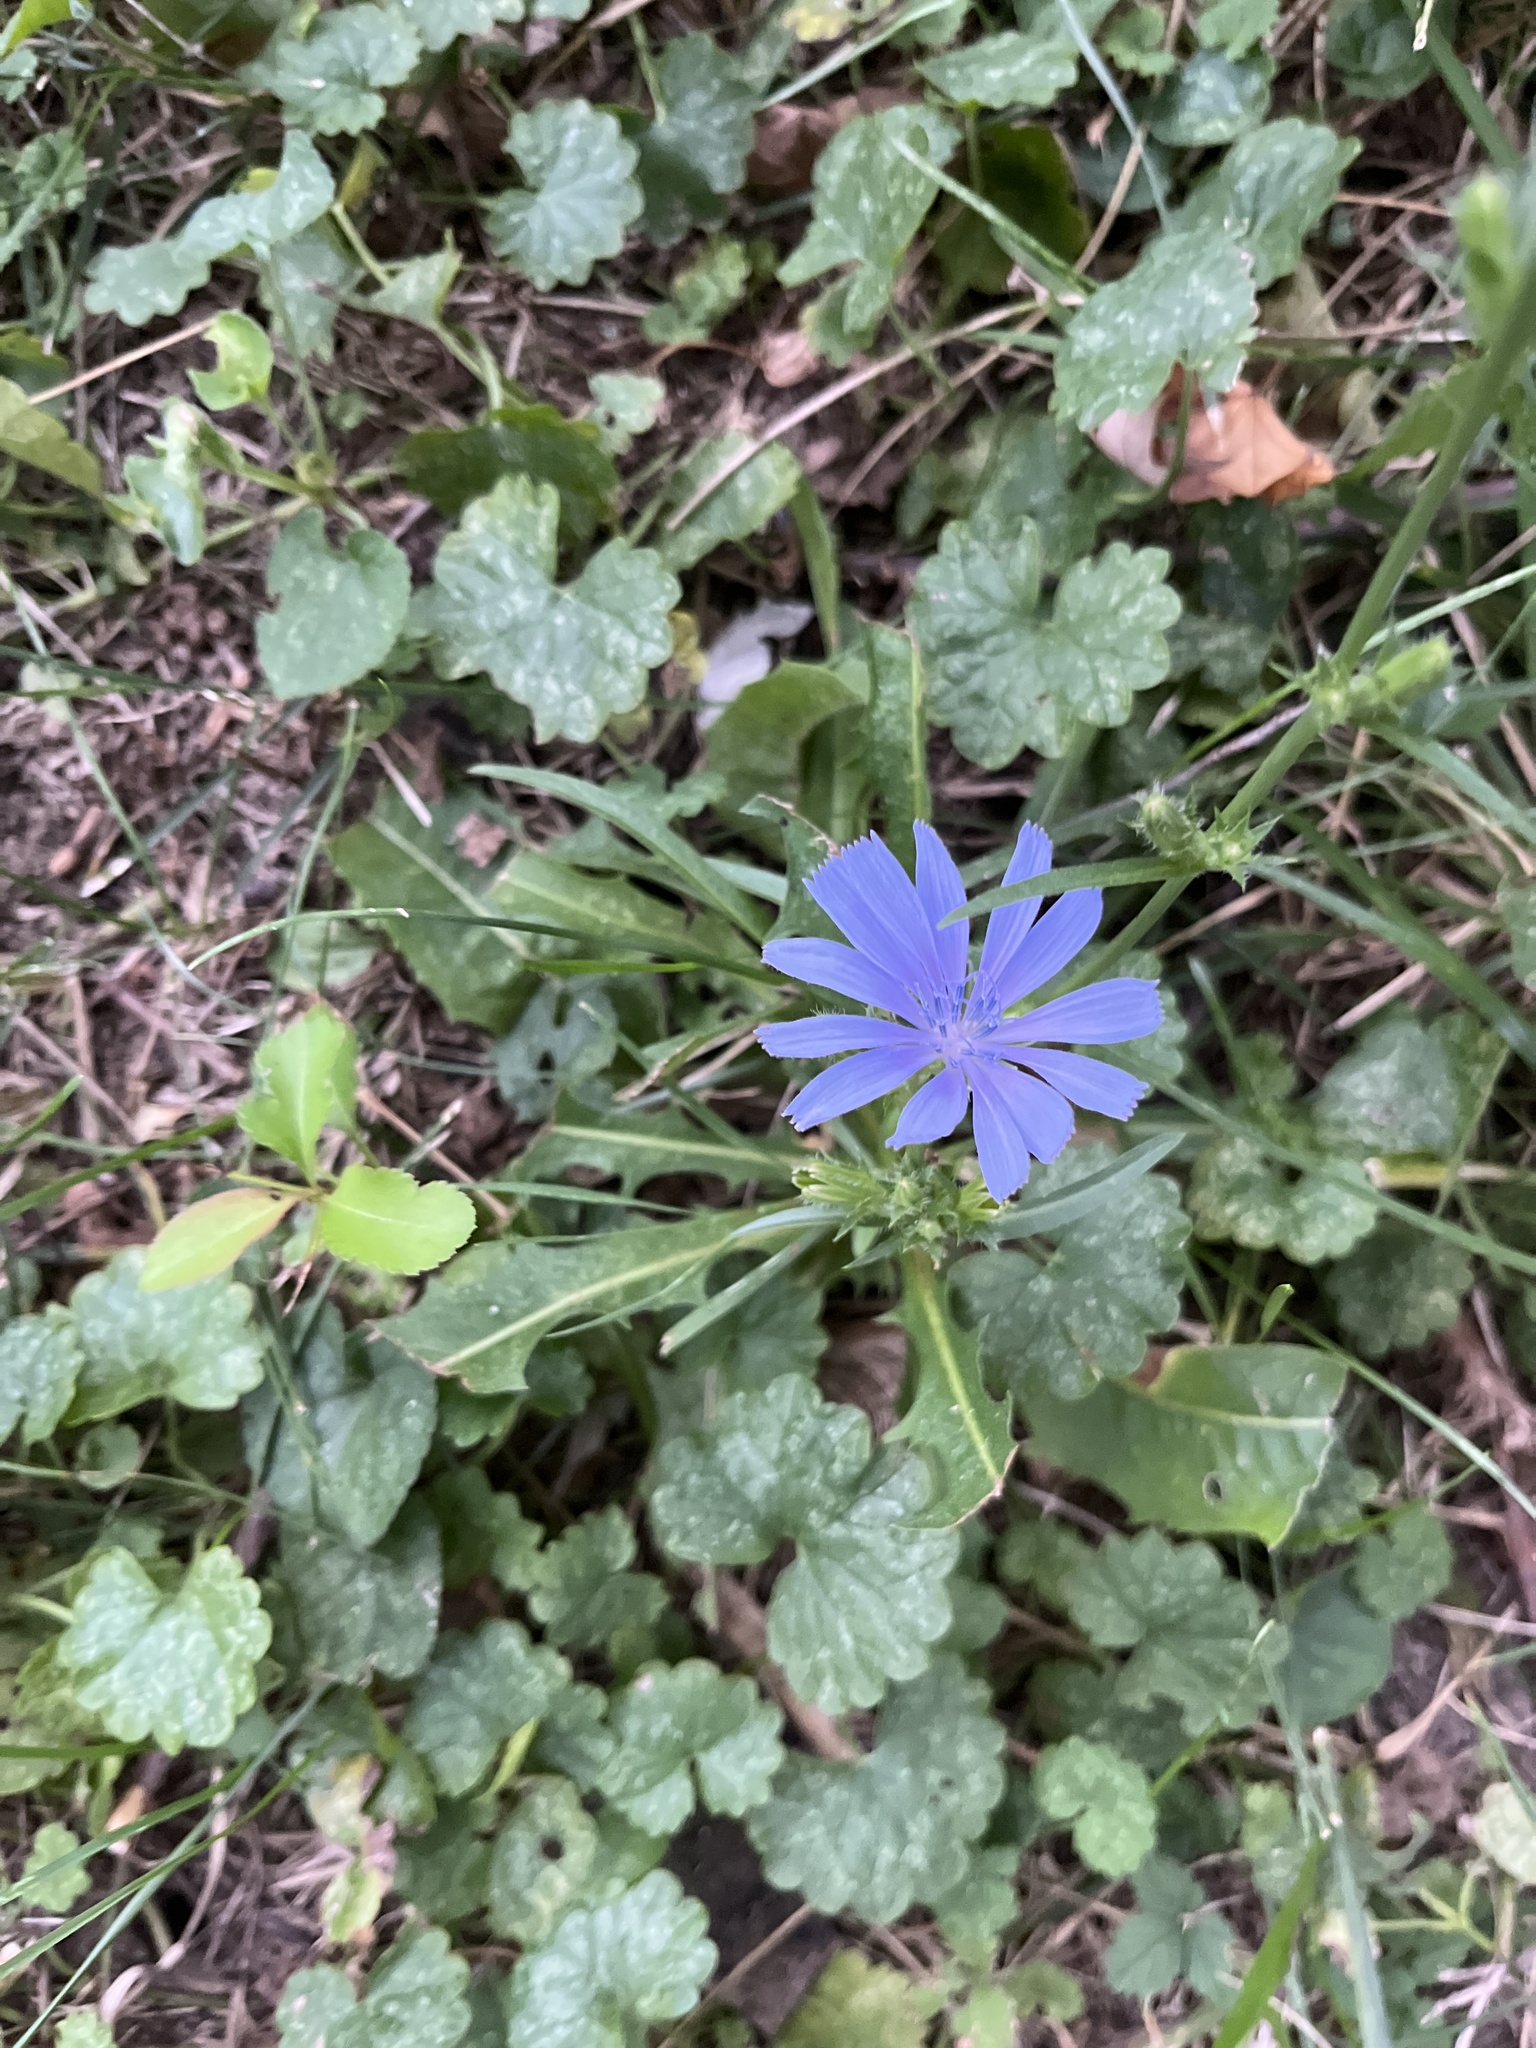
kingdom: Plantae
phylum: Tracheophyta
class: Magnoliopsida
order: Asterales
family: Asteraceae
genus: Cichorium
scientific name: Cichorium intybus
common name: Chicory
